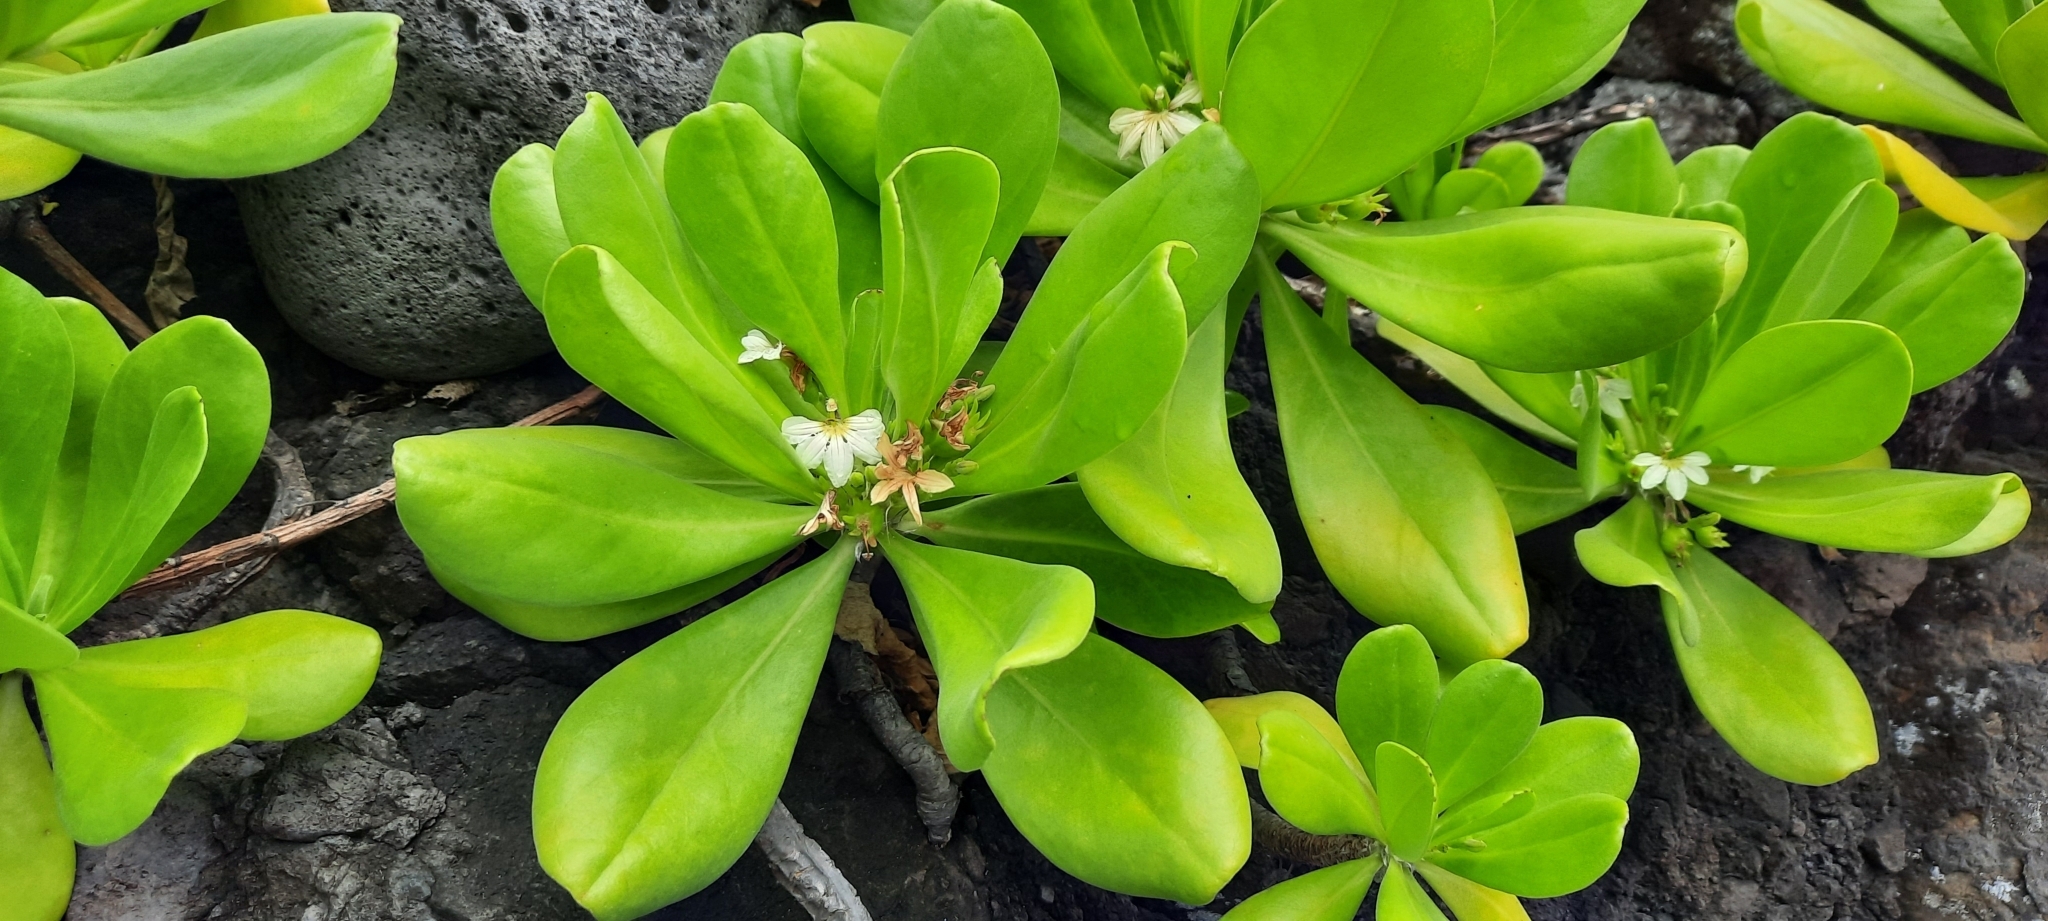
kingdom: Plantae
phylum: Tracheophyta
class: Magnoliopsida
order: Asterales
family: Goodeniaceae
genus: Scaevola
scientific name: Scaevola taccada
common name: Sea lettucetree
